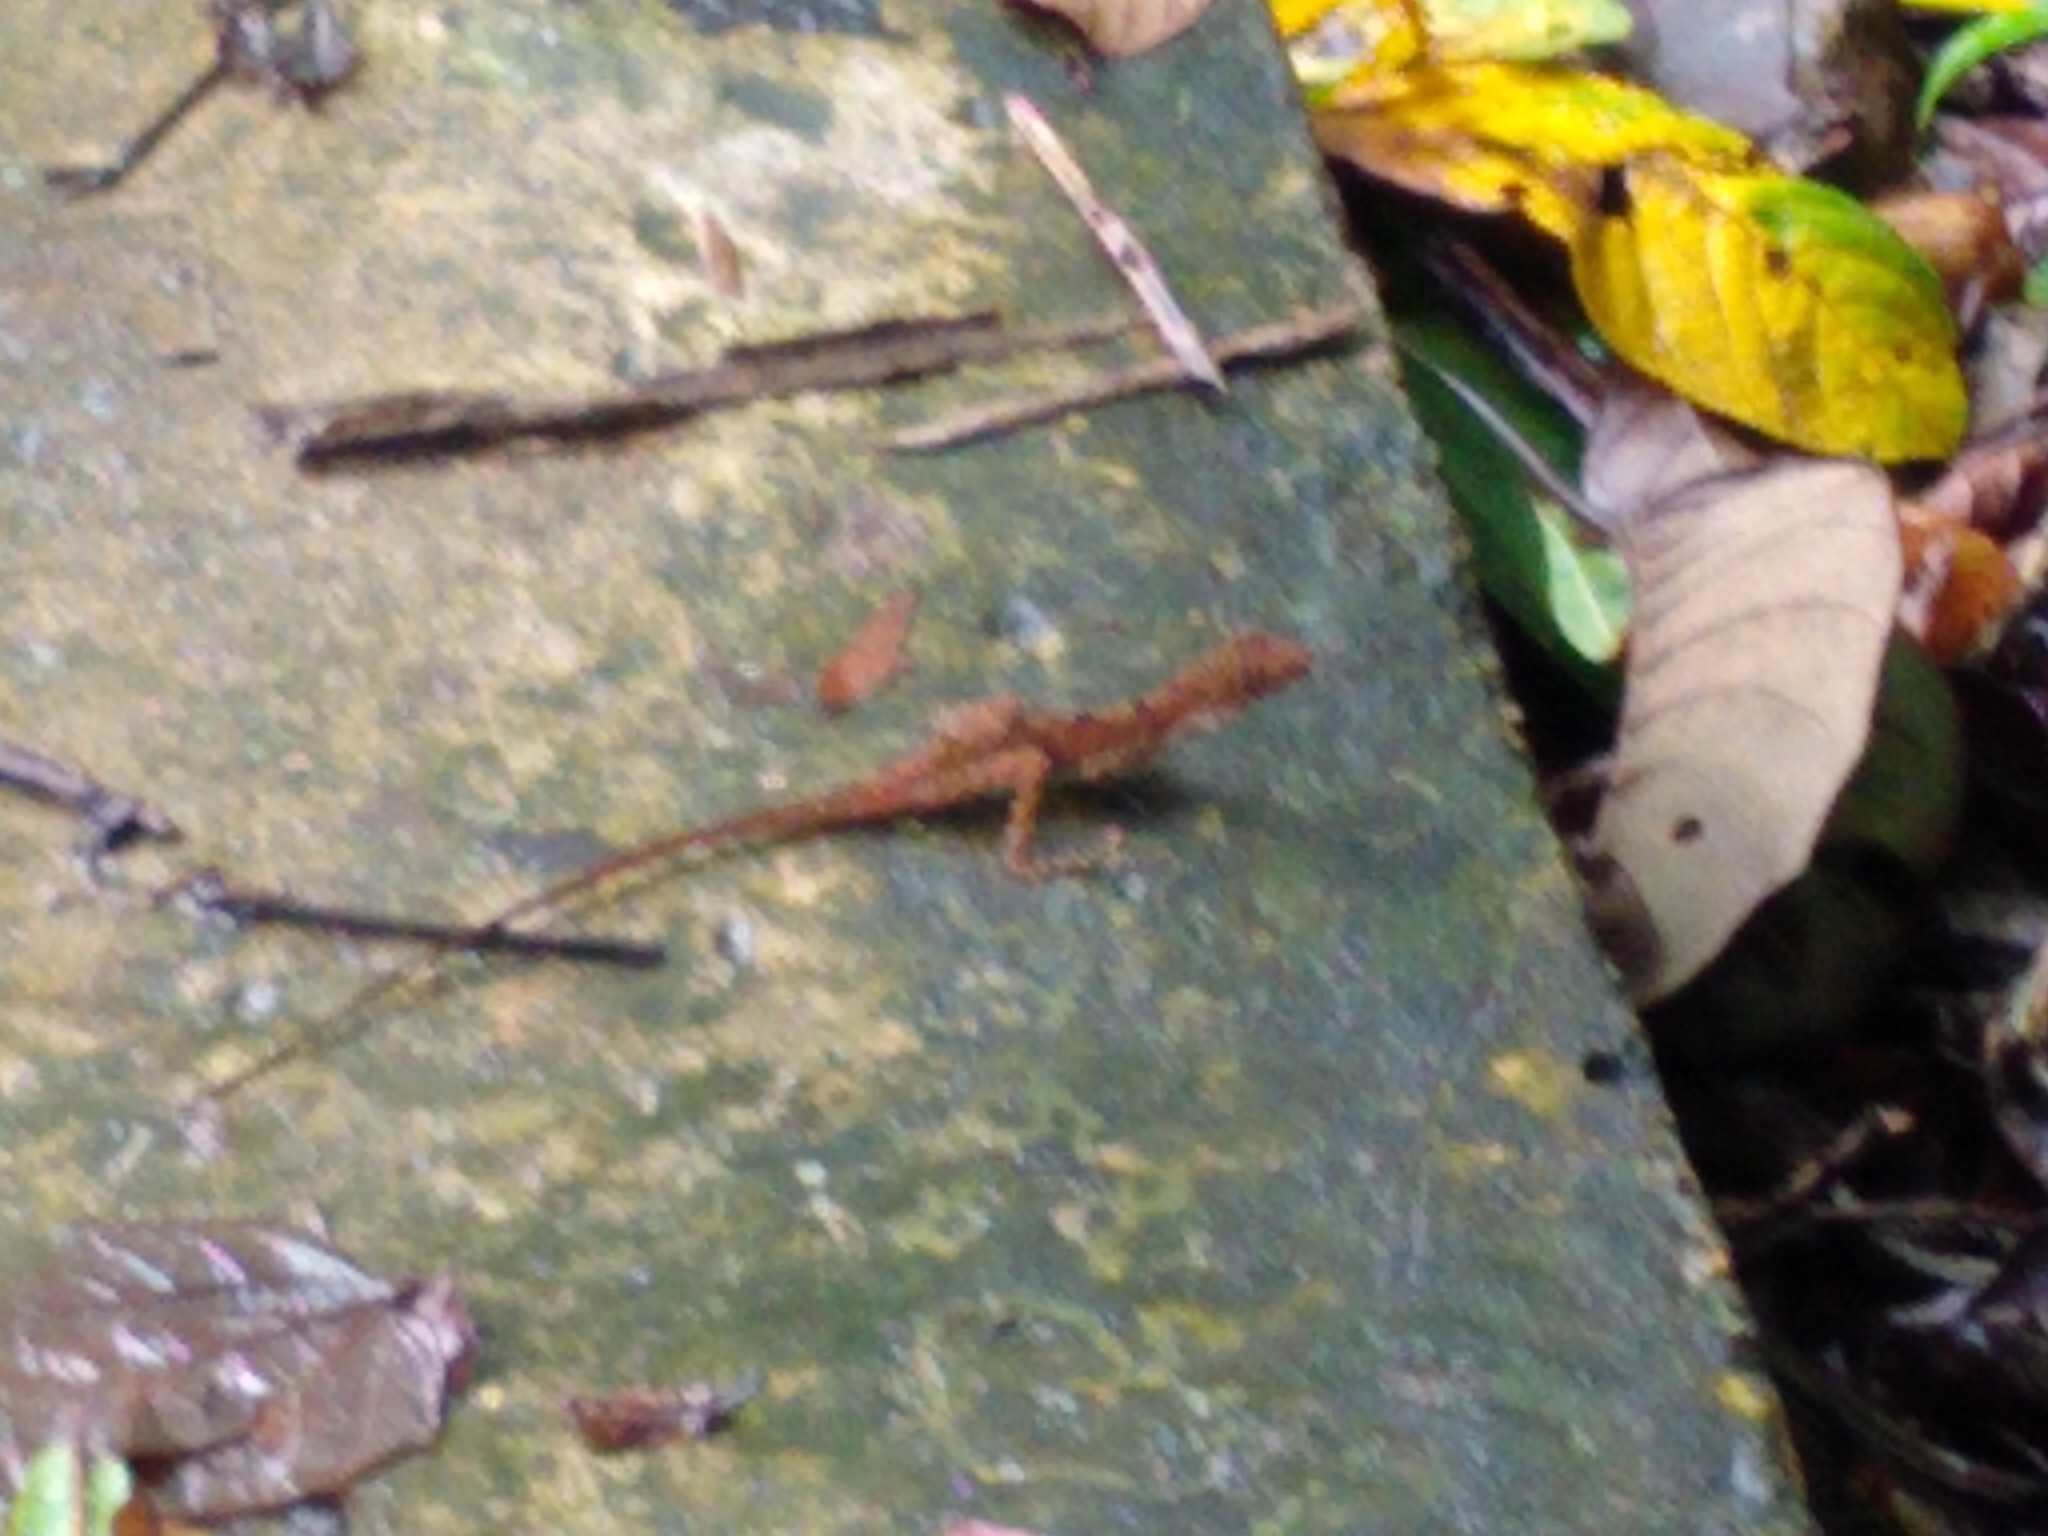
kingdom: Animalia
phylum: Chordata
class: Squamata
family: Dactyloidae
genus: Anolis
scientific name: Anolis limifrons
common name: Border anole
